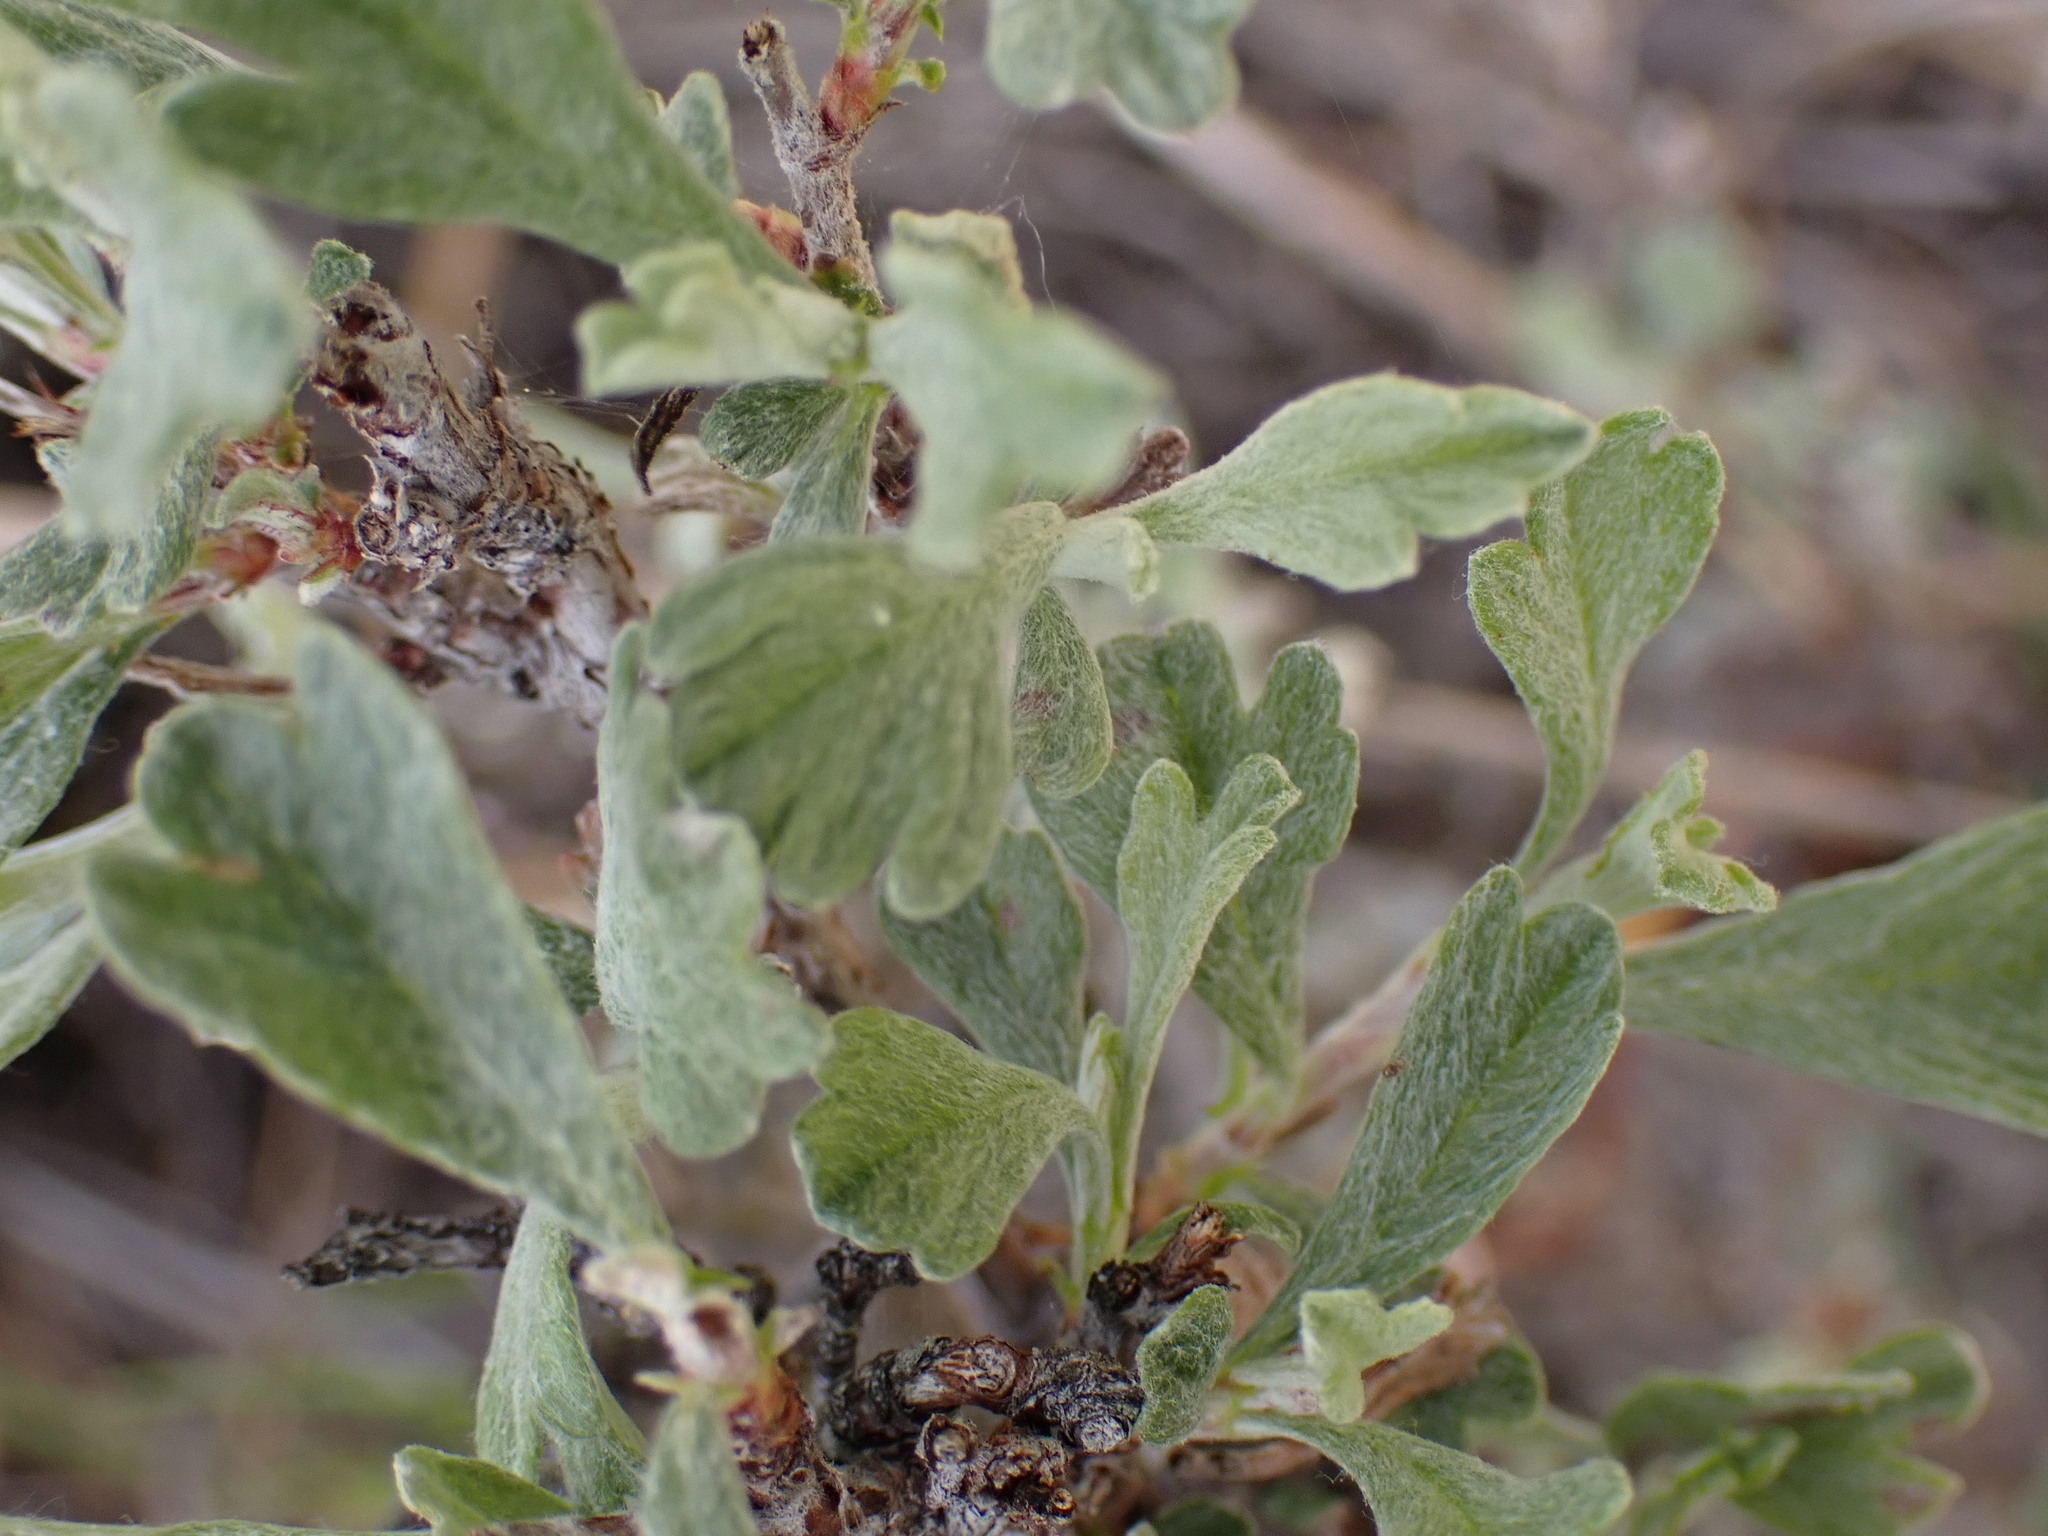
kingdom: Plantae
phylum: Tracheophyta
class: Magnoliopsida
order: Rosales
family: Rosaceae
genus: Purshia
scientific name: Purshia tridentata
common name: Antelope bitterbrush
